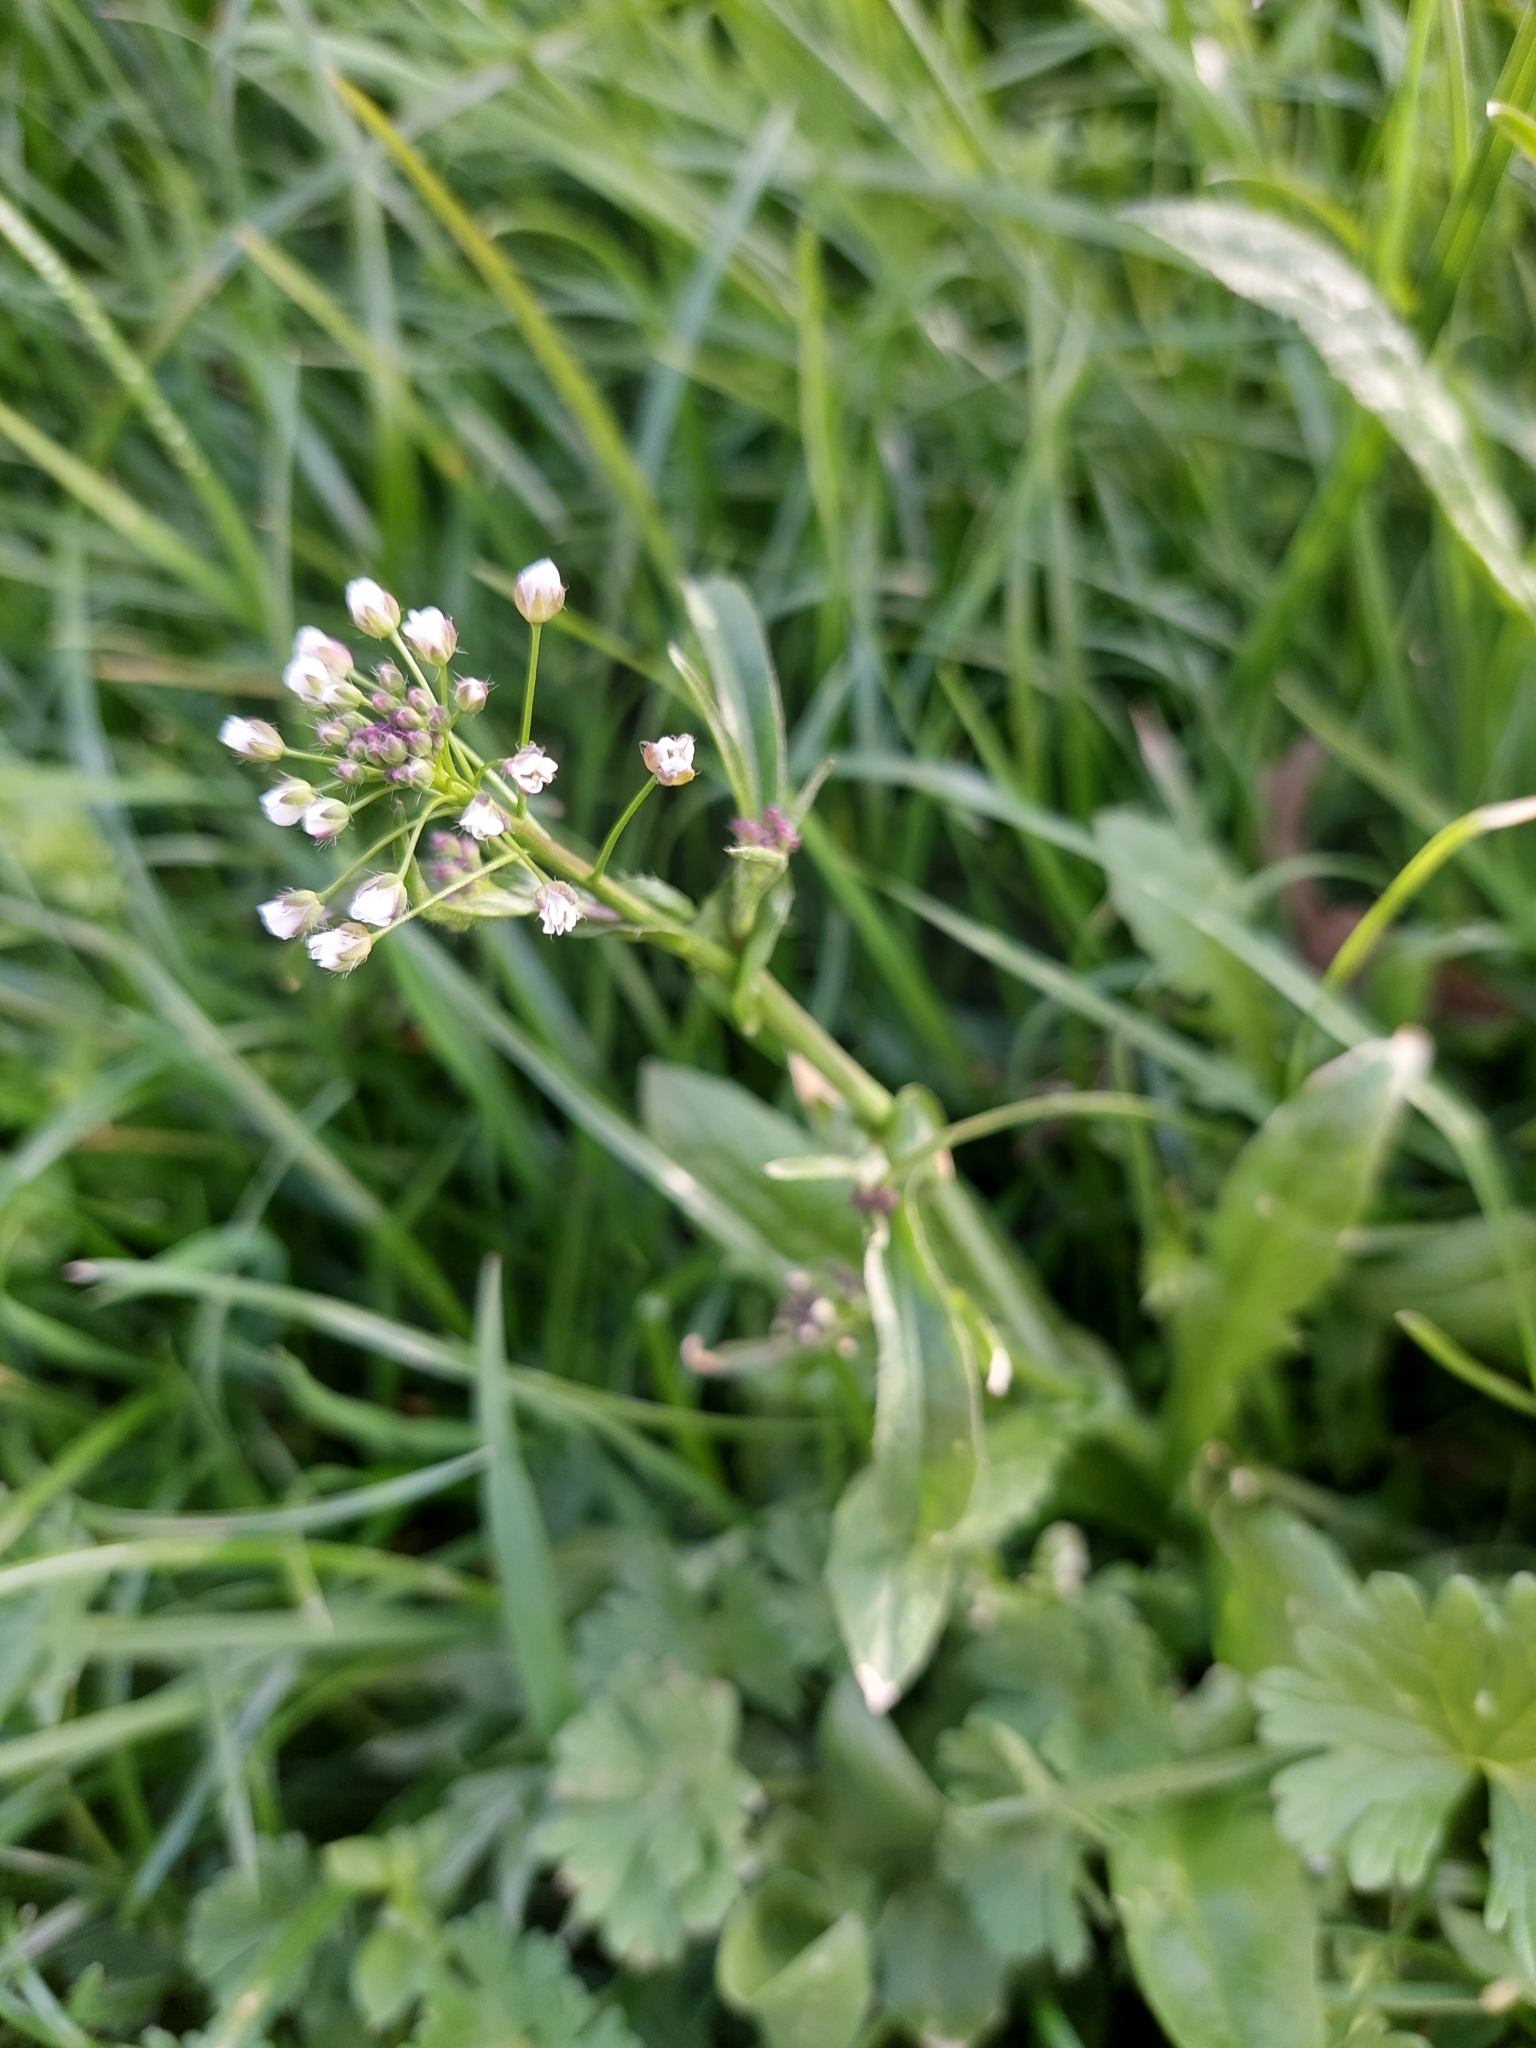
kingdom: Plantae
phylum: Tracheophyta
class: Magnoliopsida
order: Brassicales
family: Brassicaceae
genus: Capsella
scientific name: Capsella bursa-pastoris
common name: Shepherd's purse
